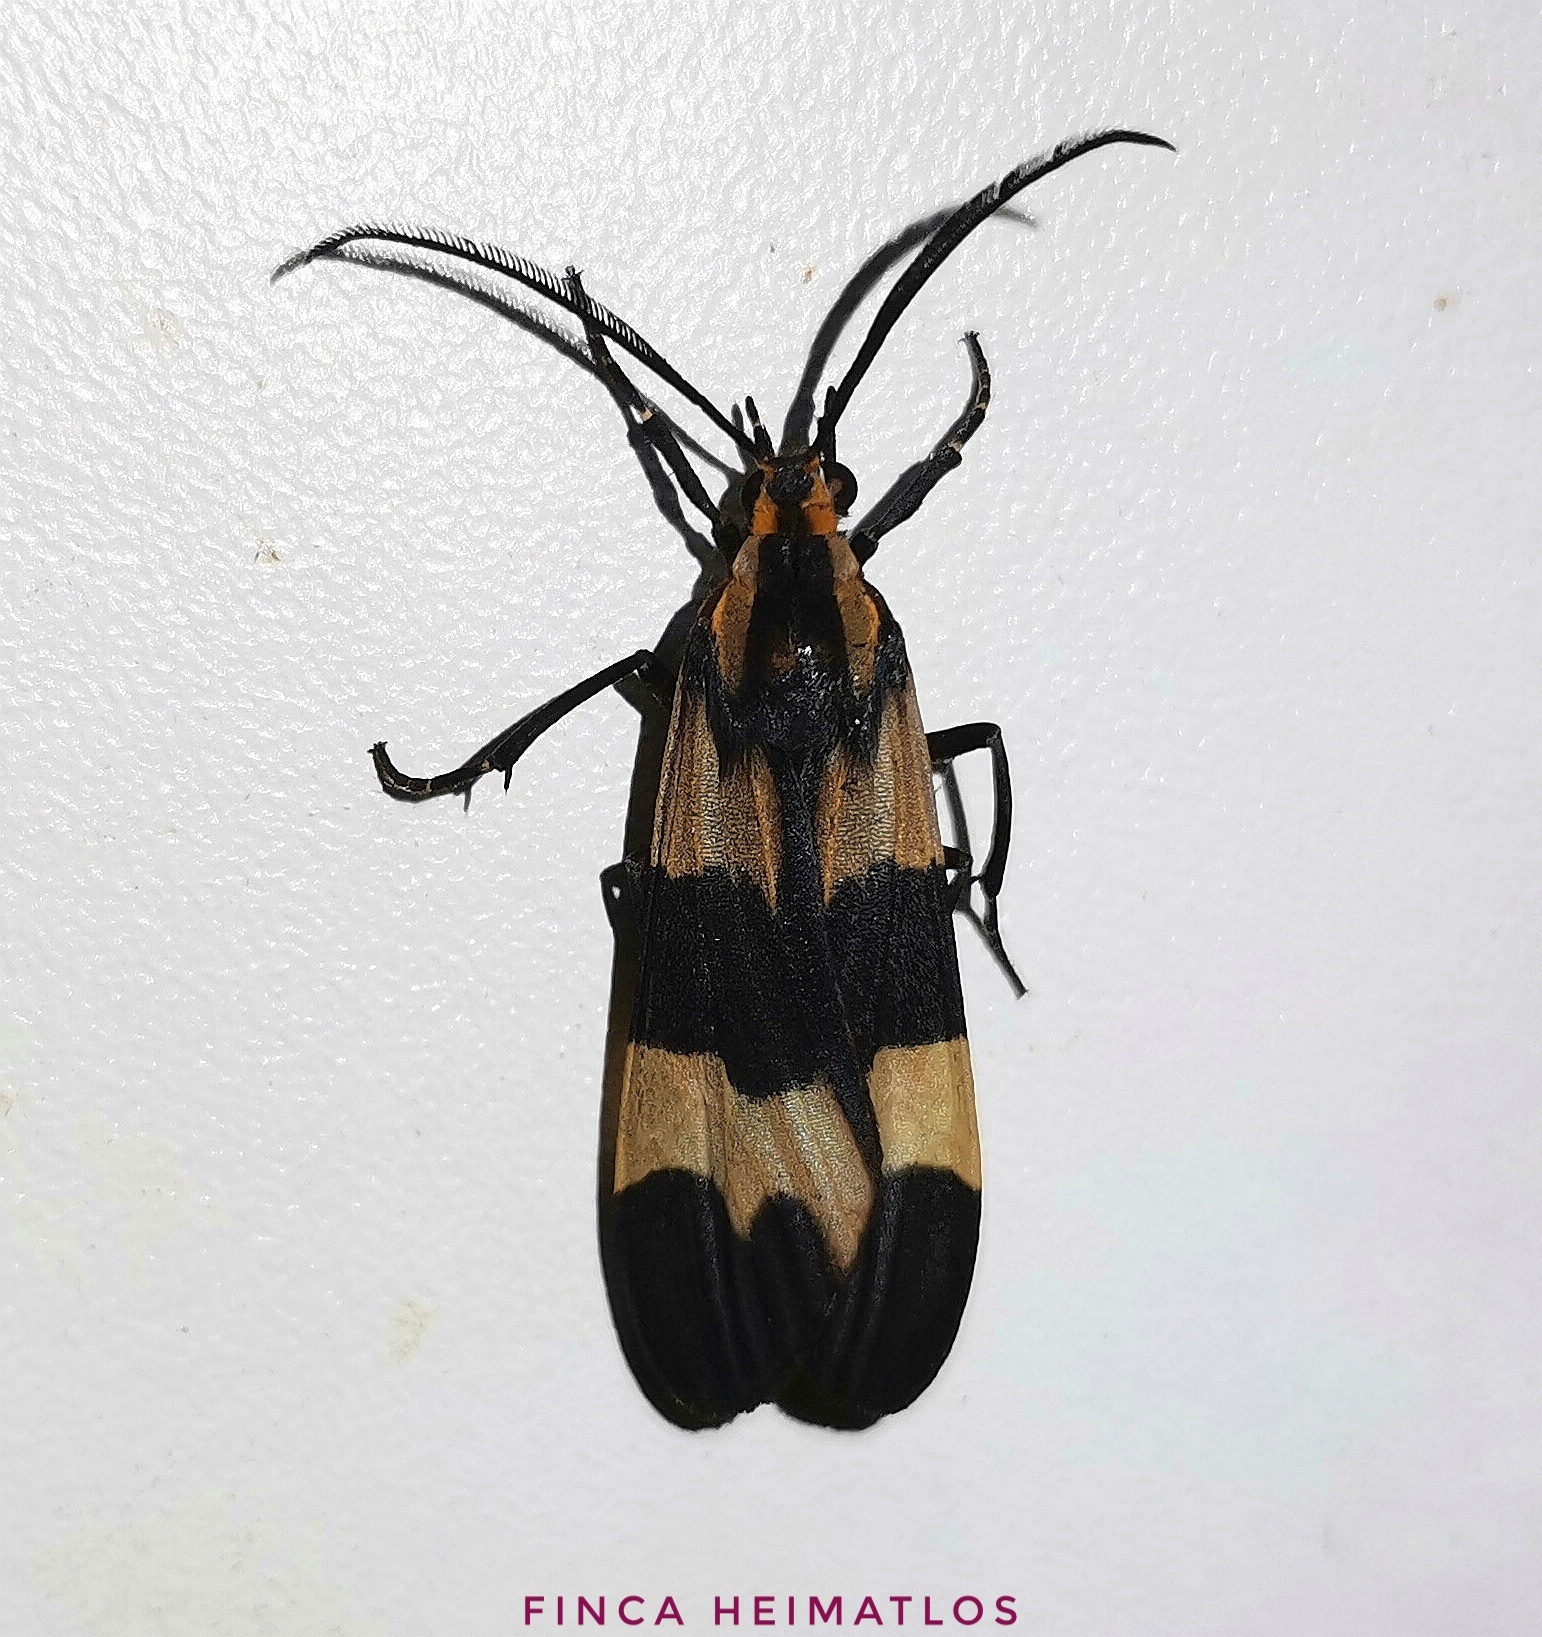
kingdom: Animalia
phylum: Arthropoda
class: Insecta
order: Lepidoptera
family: Erebidae
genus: Correbia
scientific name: Correbia obtusa
